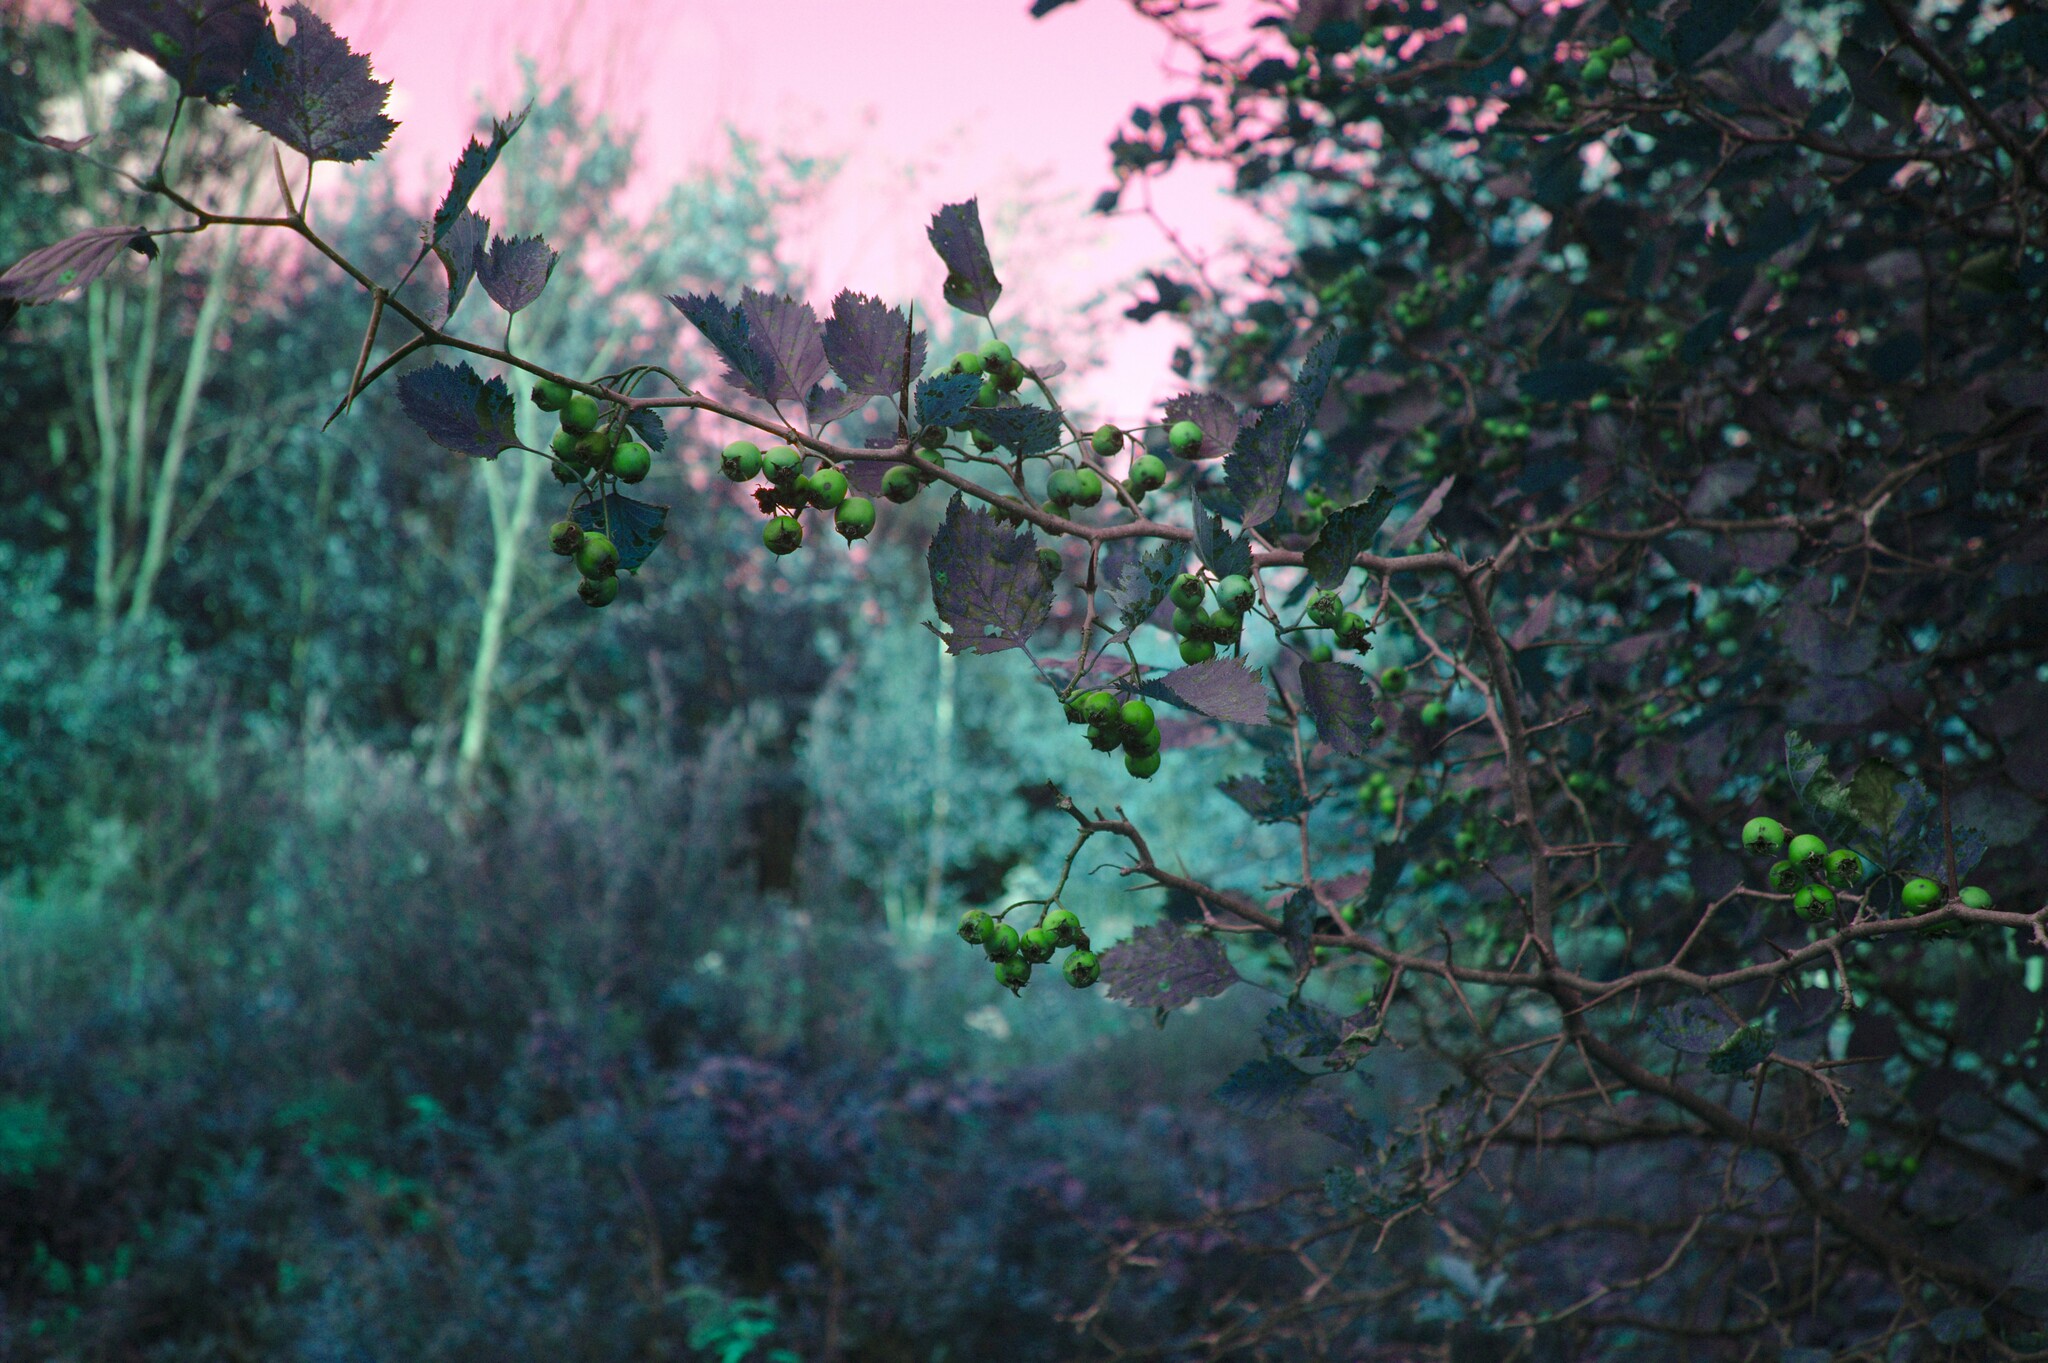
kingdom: Plantae
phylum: Tracheophyta
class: Magnoliopsida
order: Rosales
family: Rosaceae
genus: Crataegus
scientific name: Crataegus submollis
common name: Hairy cockspurthorn
